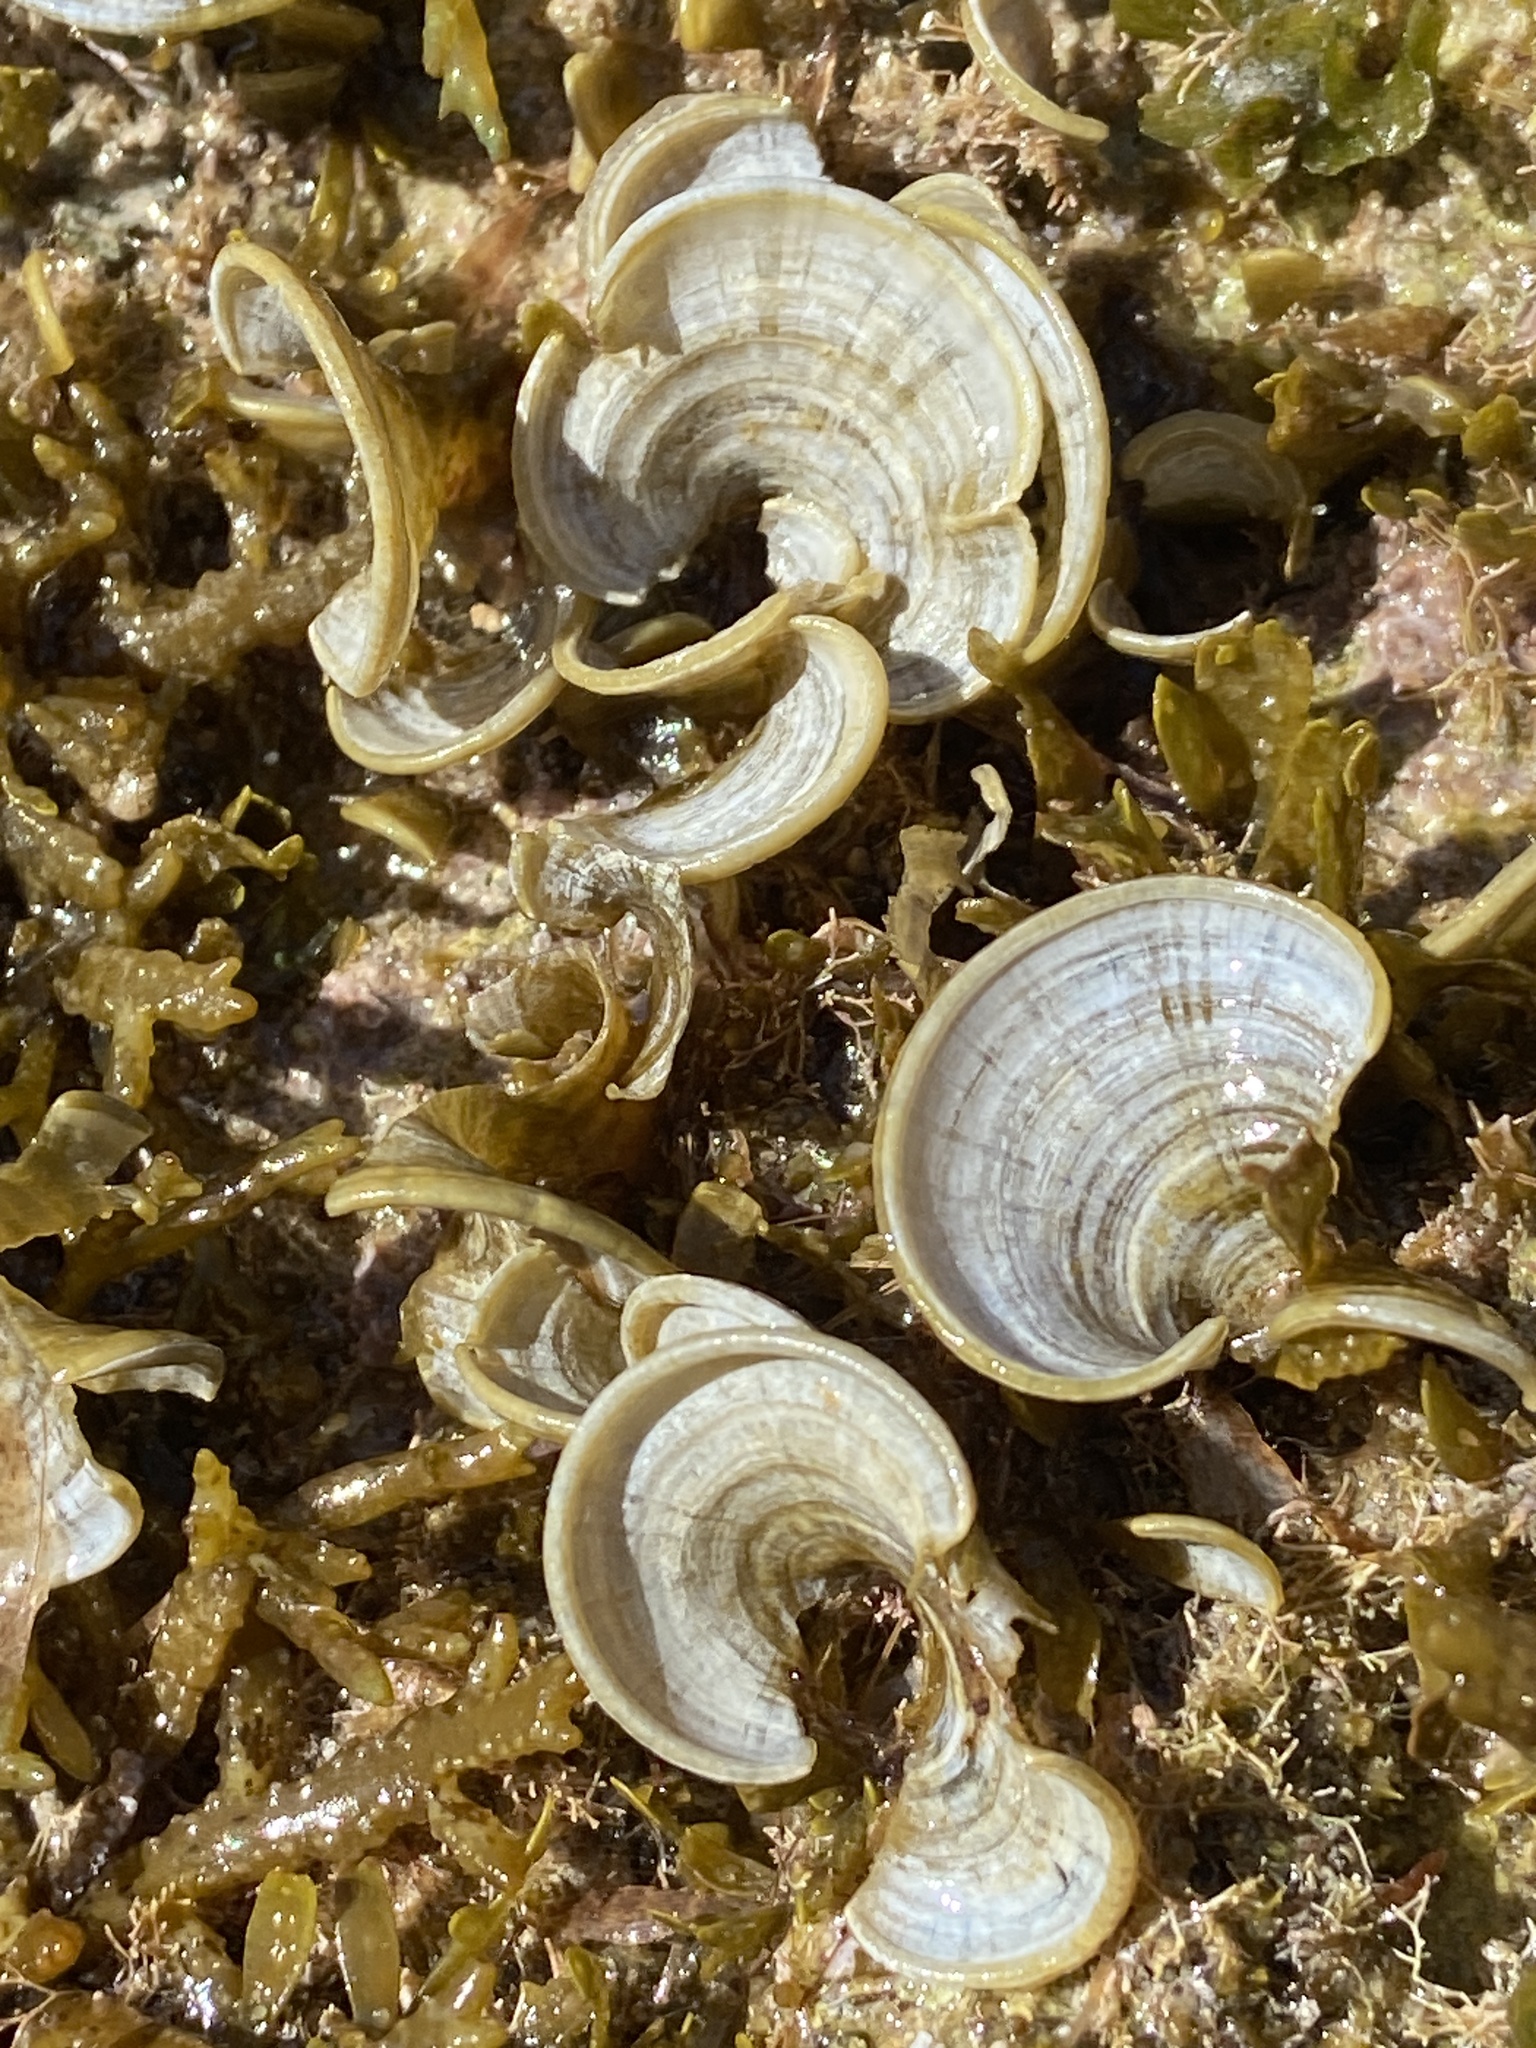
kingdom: Chromista
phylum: Ochrophyta
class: Phaeophyceae
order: Dictyotales
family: Dictyotaceae
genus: Padina
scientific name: Padina
